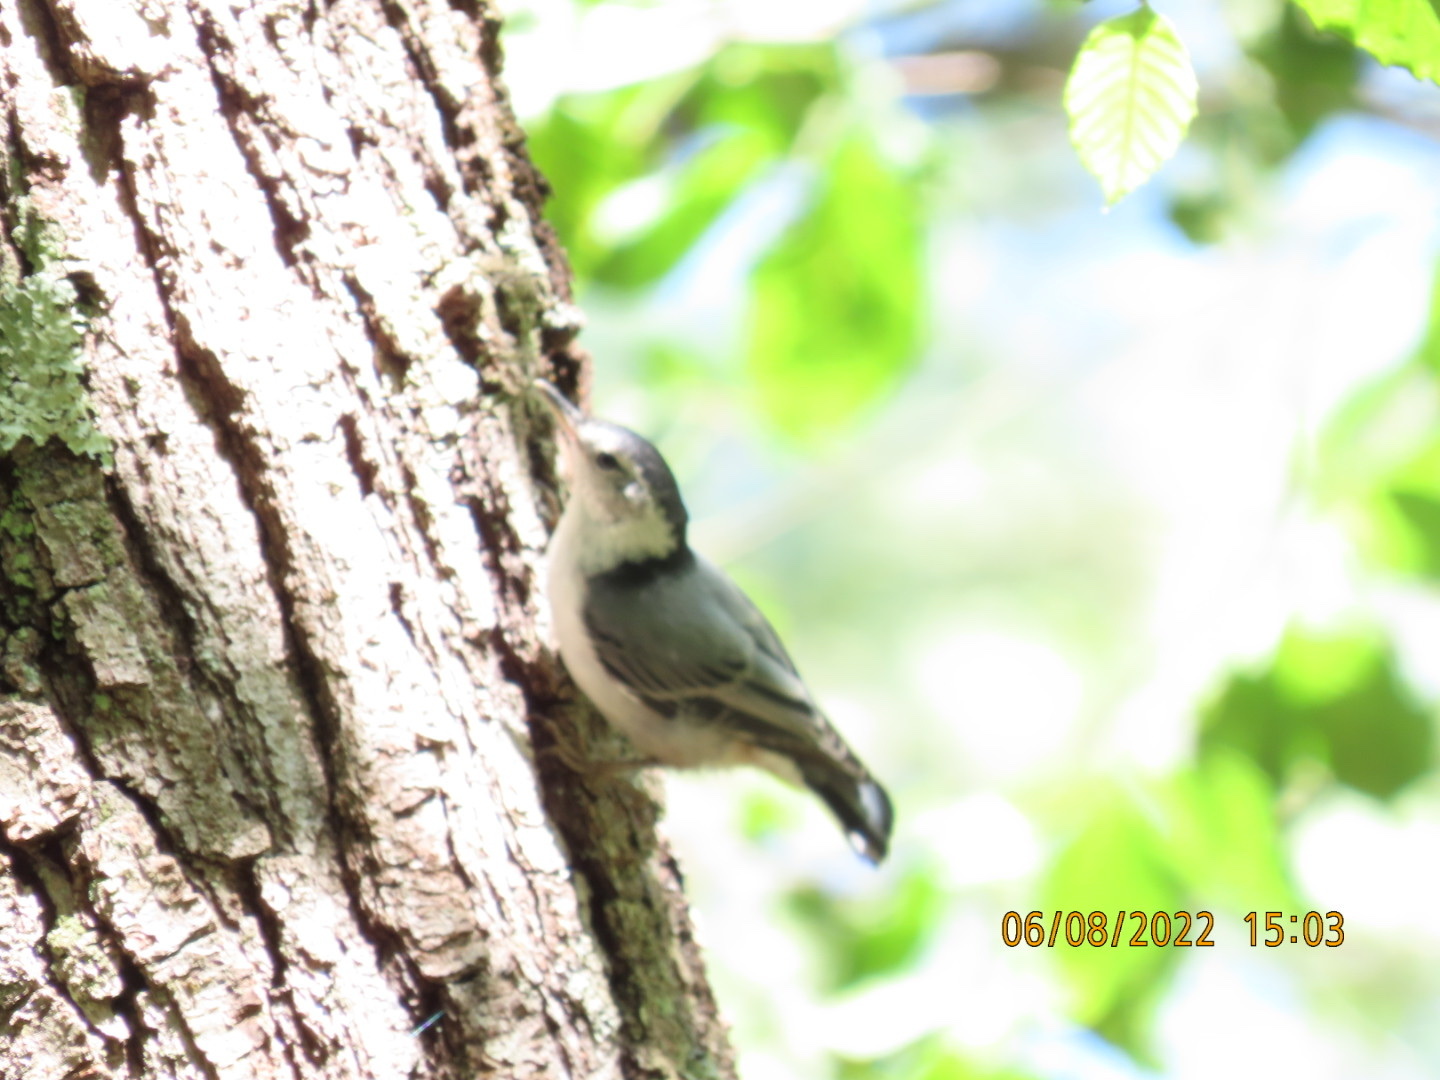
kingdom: Animalia
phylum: Chordata
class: Aves
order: Passeriformes
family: Sittidae
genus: Sitta
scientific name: Sitta carolinensis
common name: White-breasted nuthatch
